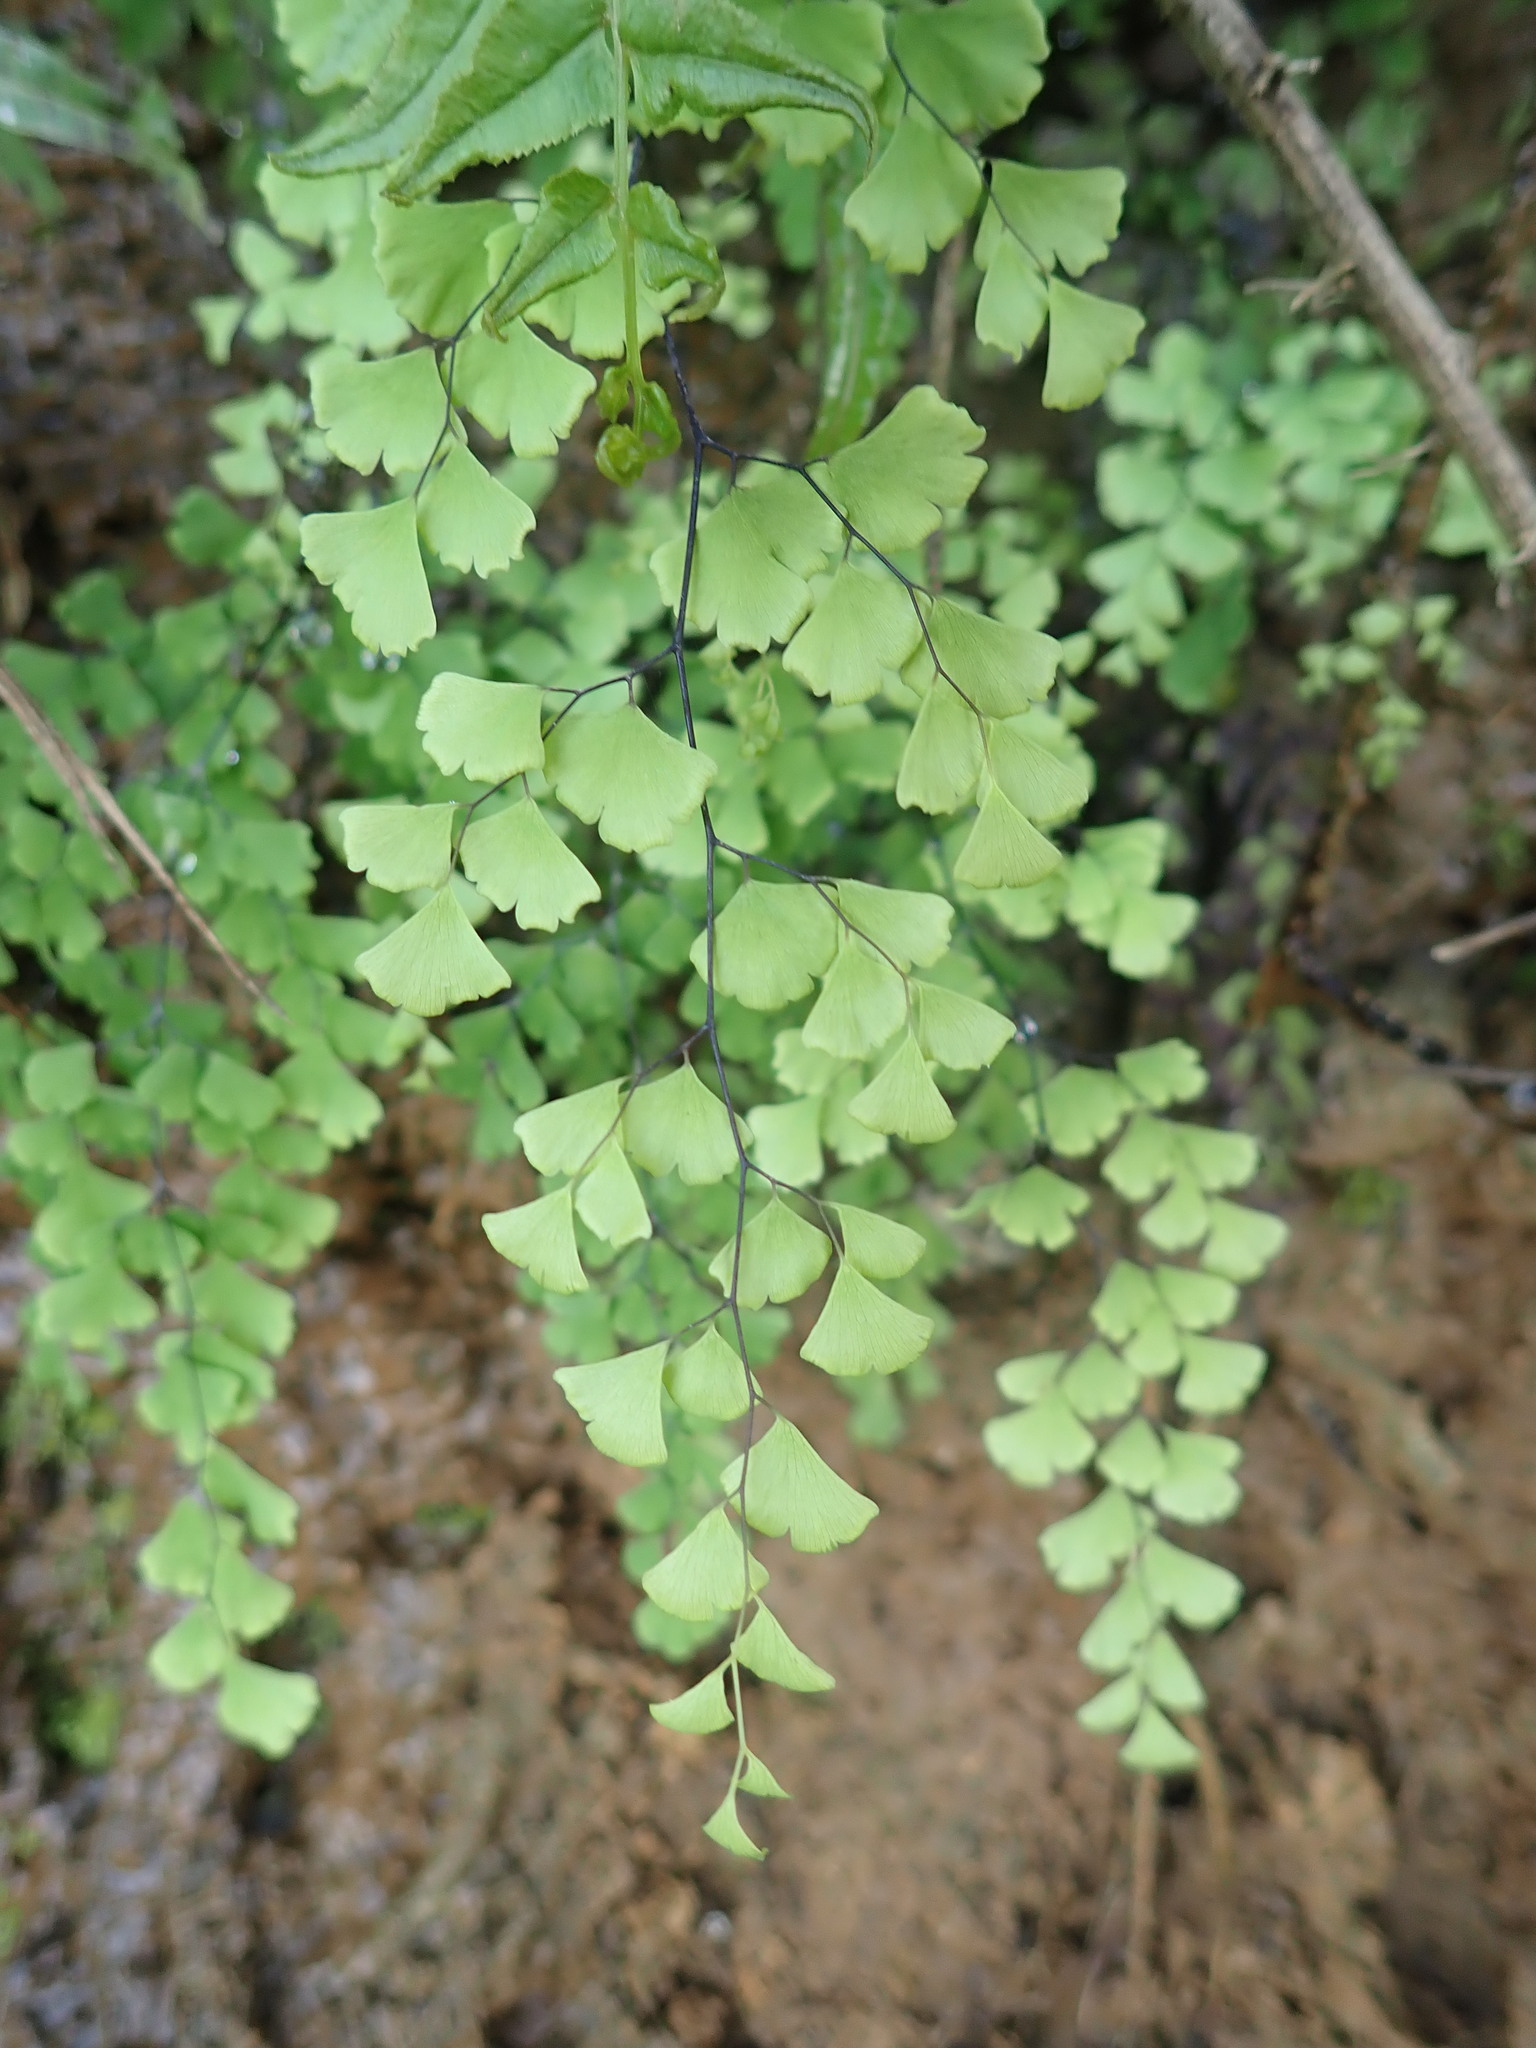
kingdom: Plantae
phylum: Tracheophyta
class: Polypodiopsida
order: Polypodiales
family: Pteridaceae
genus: Adiantum
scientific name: Adiantum capillus-veneris
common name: Maidenhair fern
